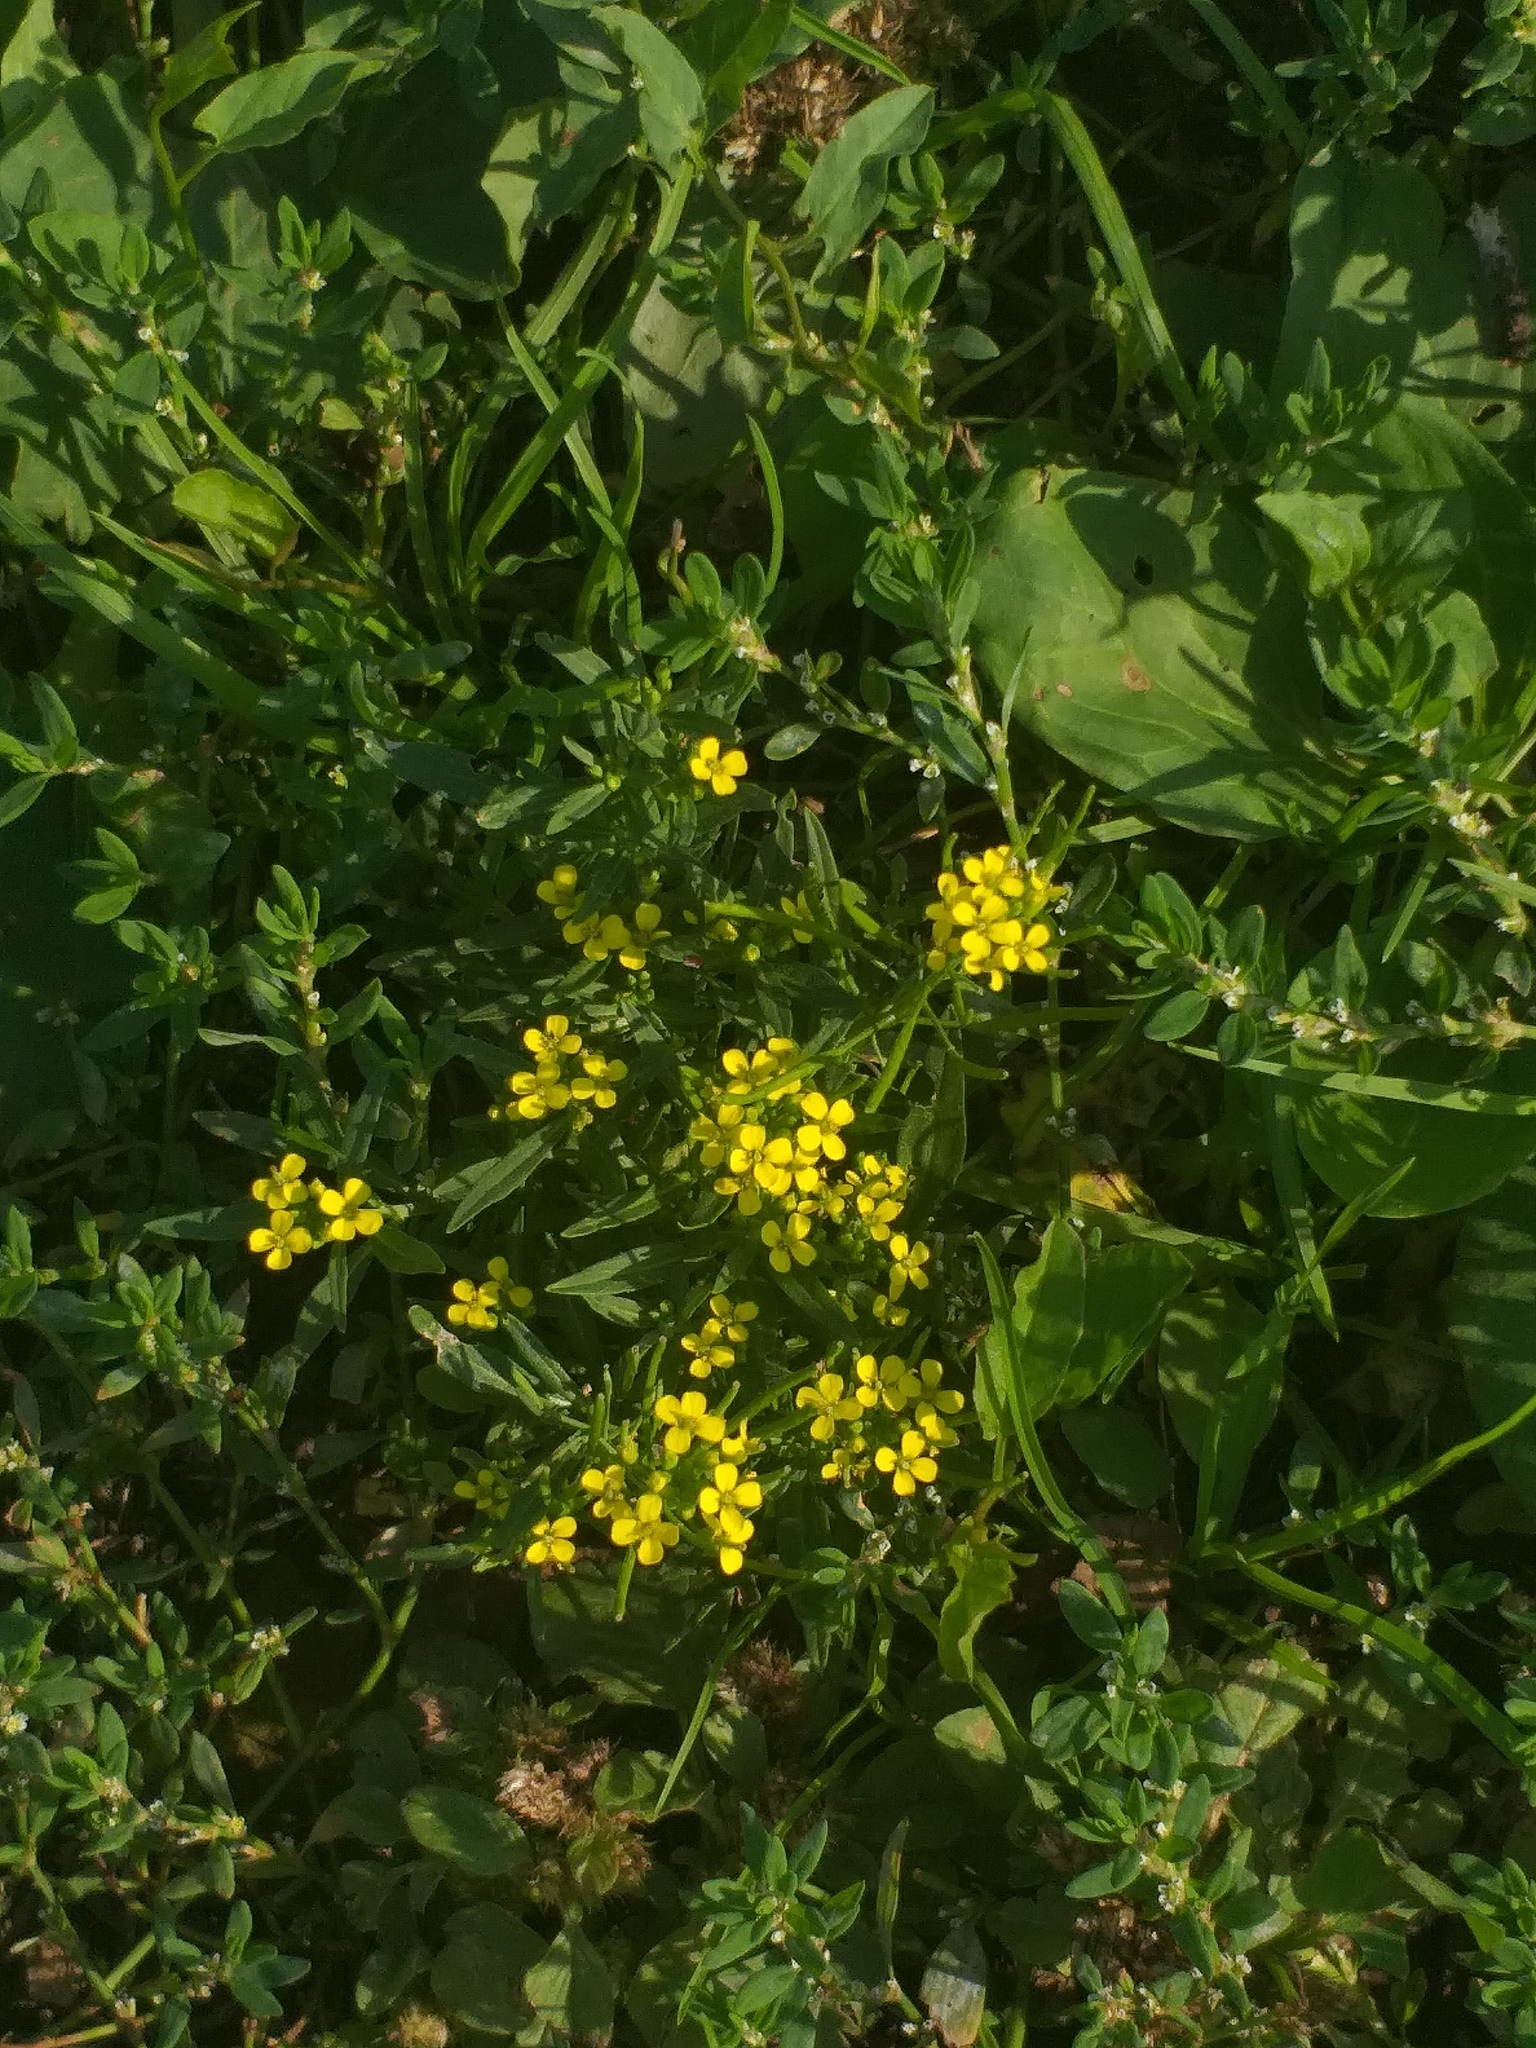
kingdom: Plantae
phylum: Tracheophyta
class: Magnoliopsida
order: Brassicales
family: Brassicaceae
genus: Erysimum
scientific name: Erysimum cheiranthoides
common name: Treacle mustard
